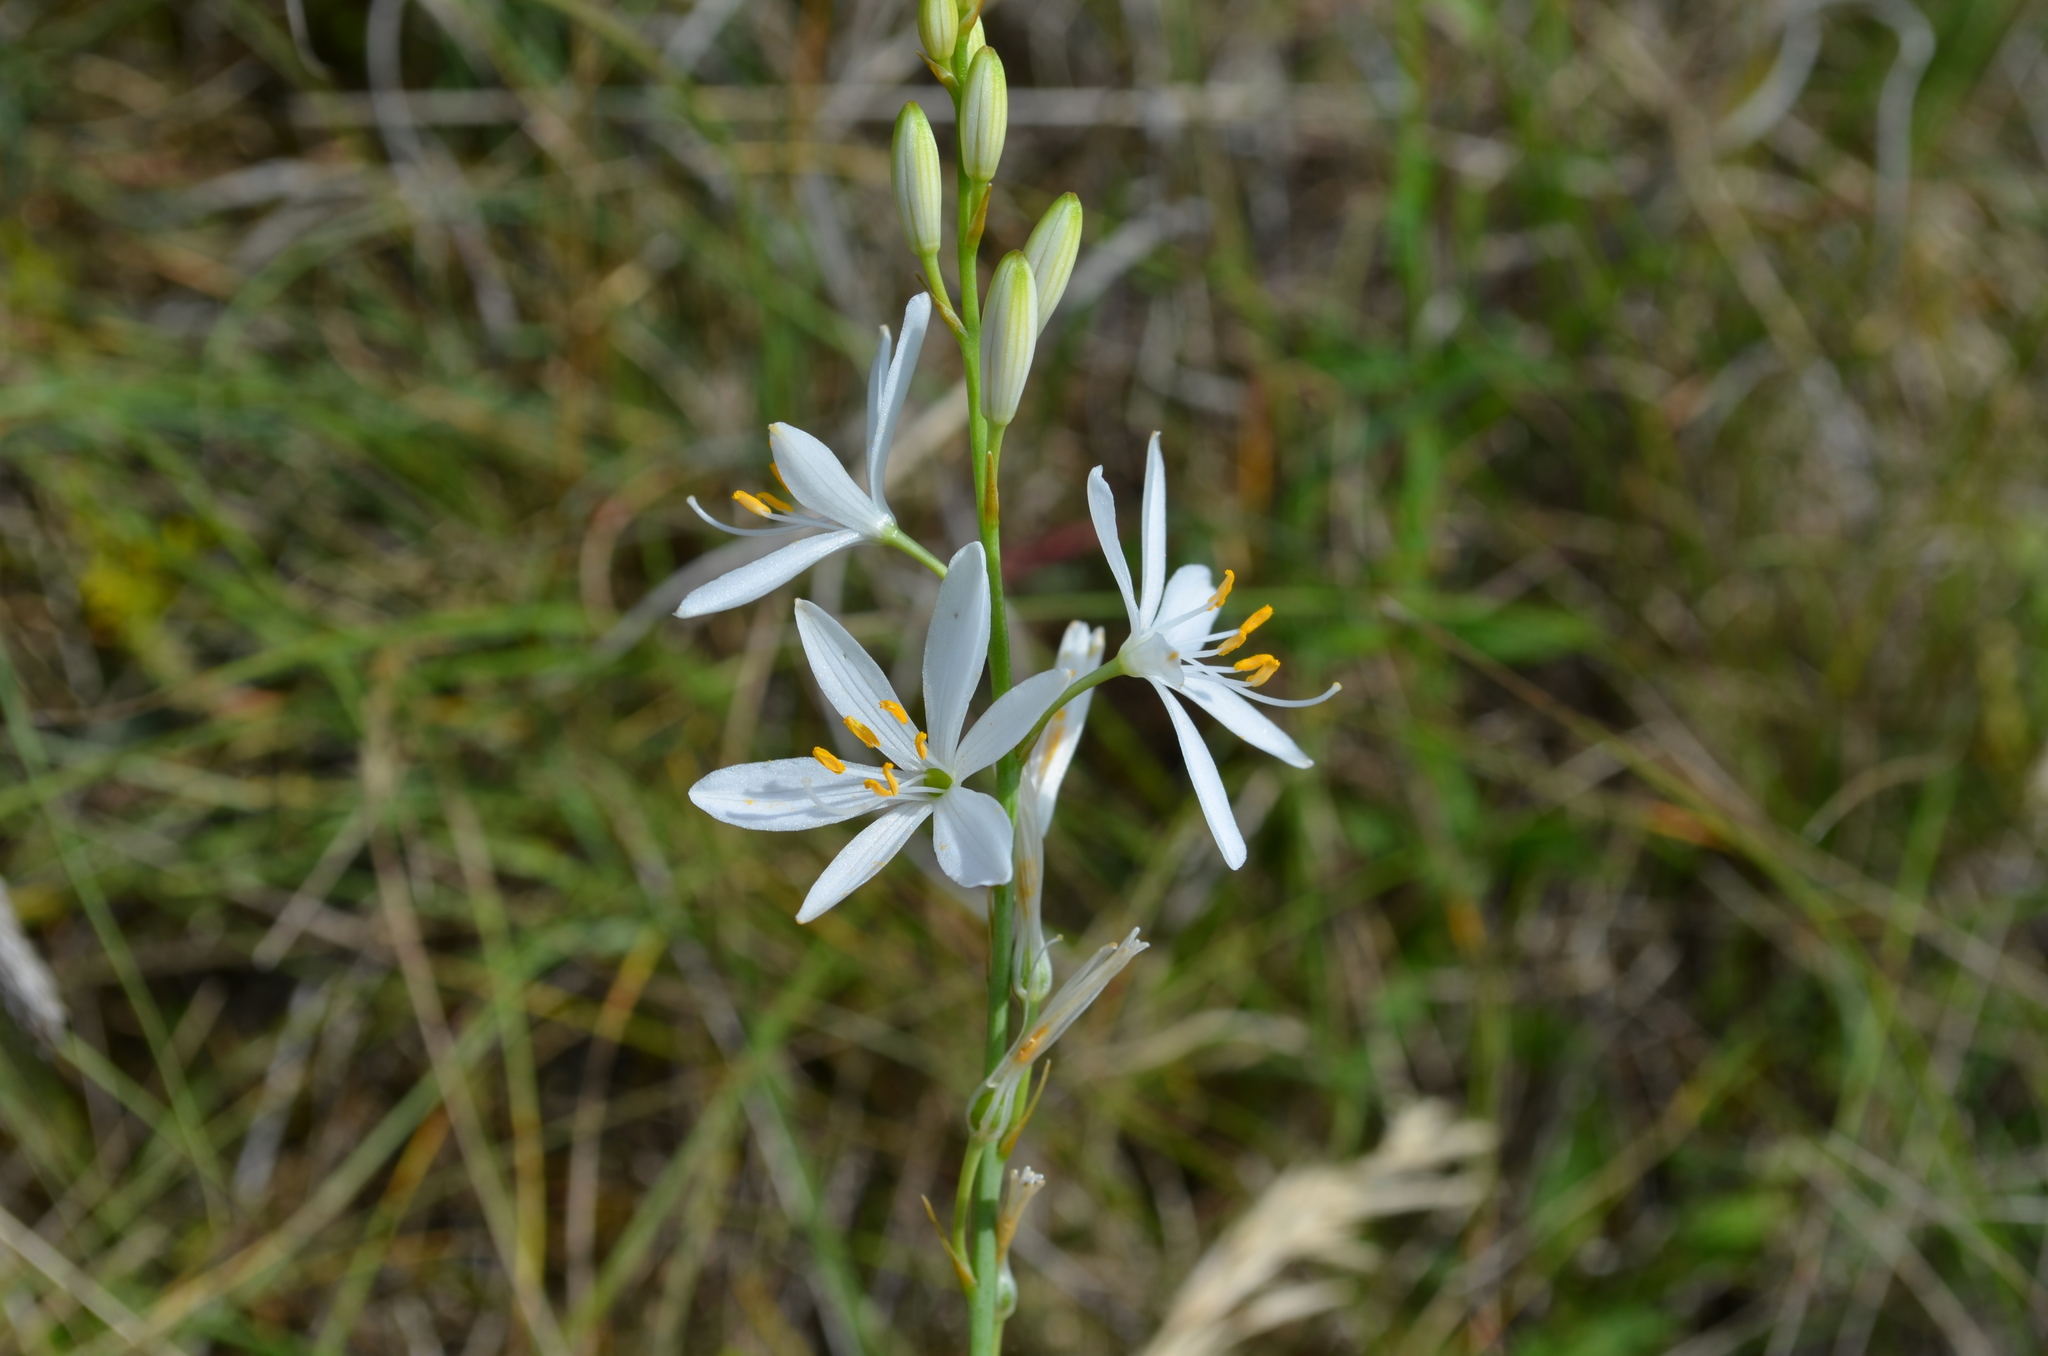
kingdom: Plantae
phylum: Tracheophyta
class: Liliopsida
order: Asparagales
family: Asparagaceae
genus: Anthericum
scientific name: Anthericum liliago
